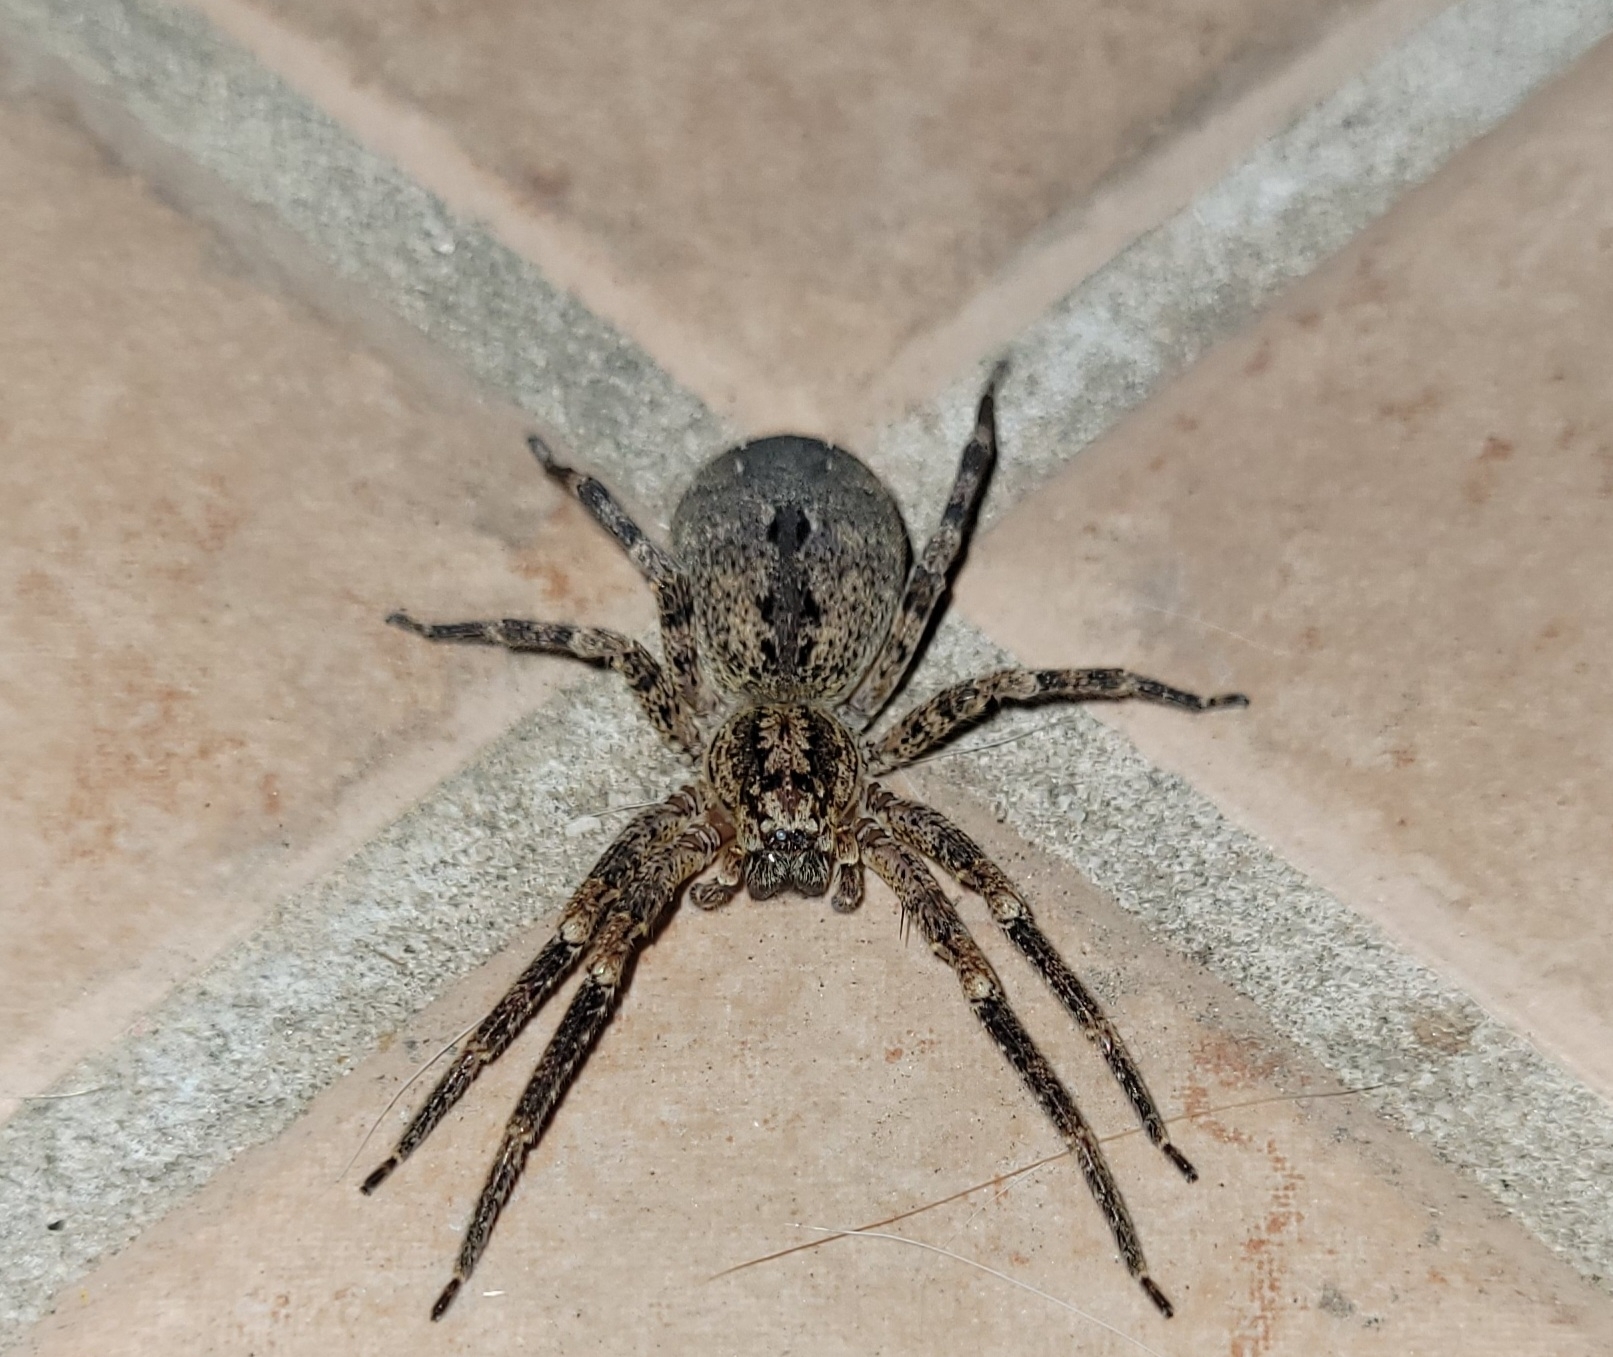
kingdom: Animalia
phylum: Arthropoda
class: Arachnida
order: Araneae
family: Zoropsidae
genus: Zoropsis
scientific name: Zoropsis spinimana
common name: Zoropsid spider
